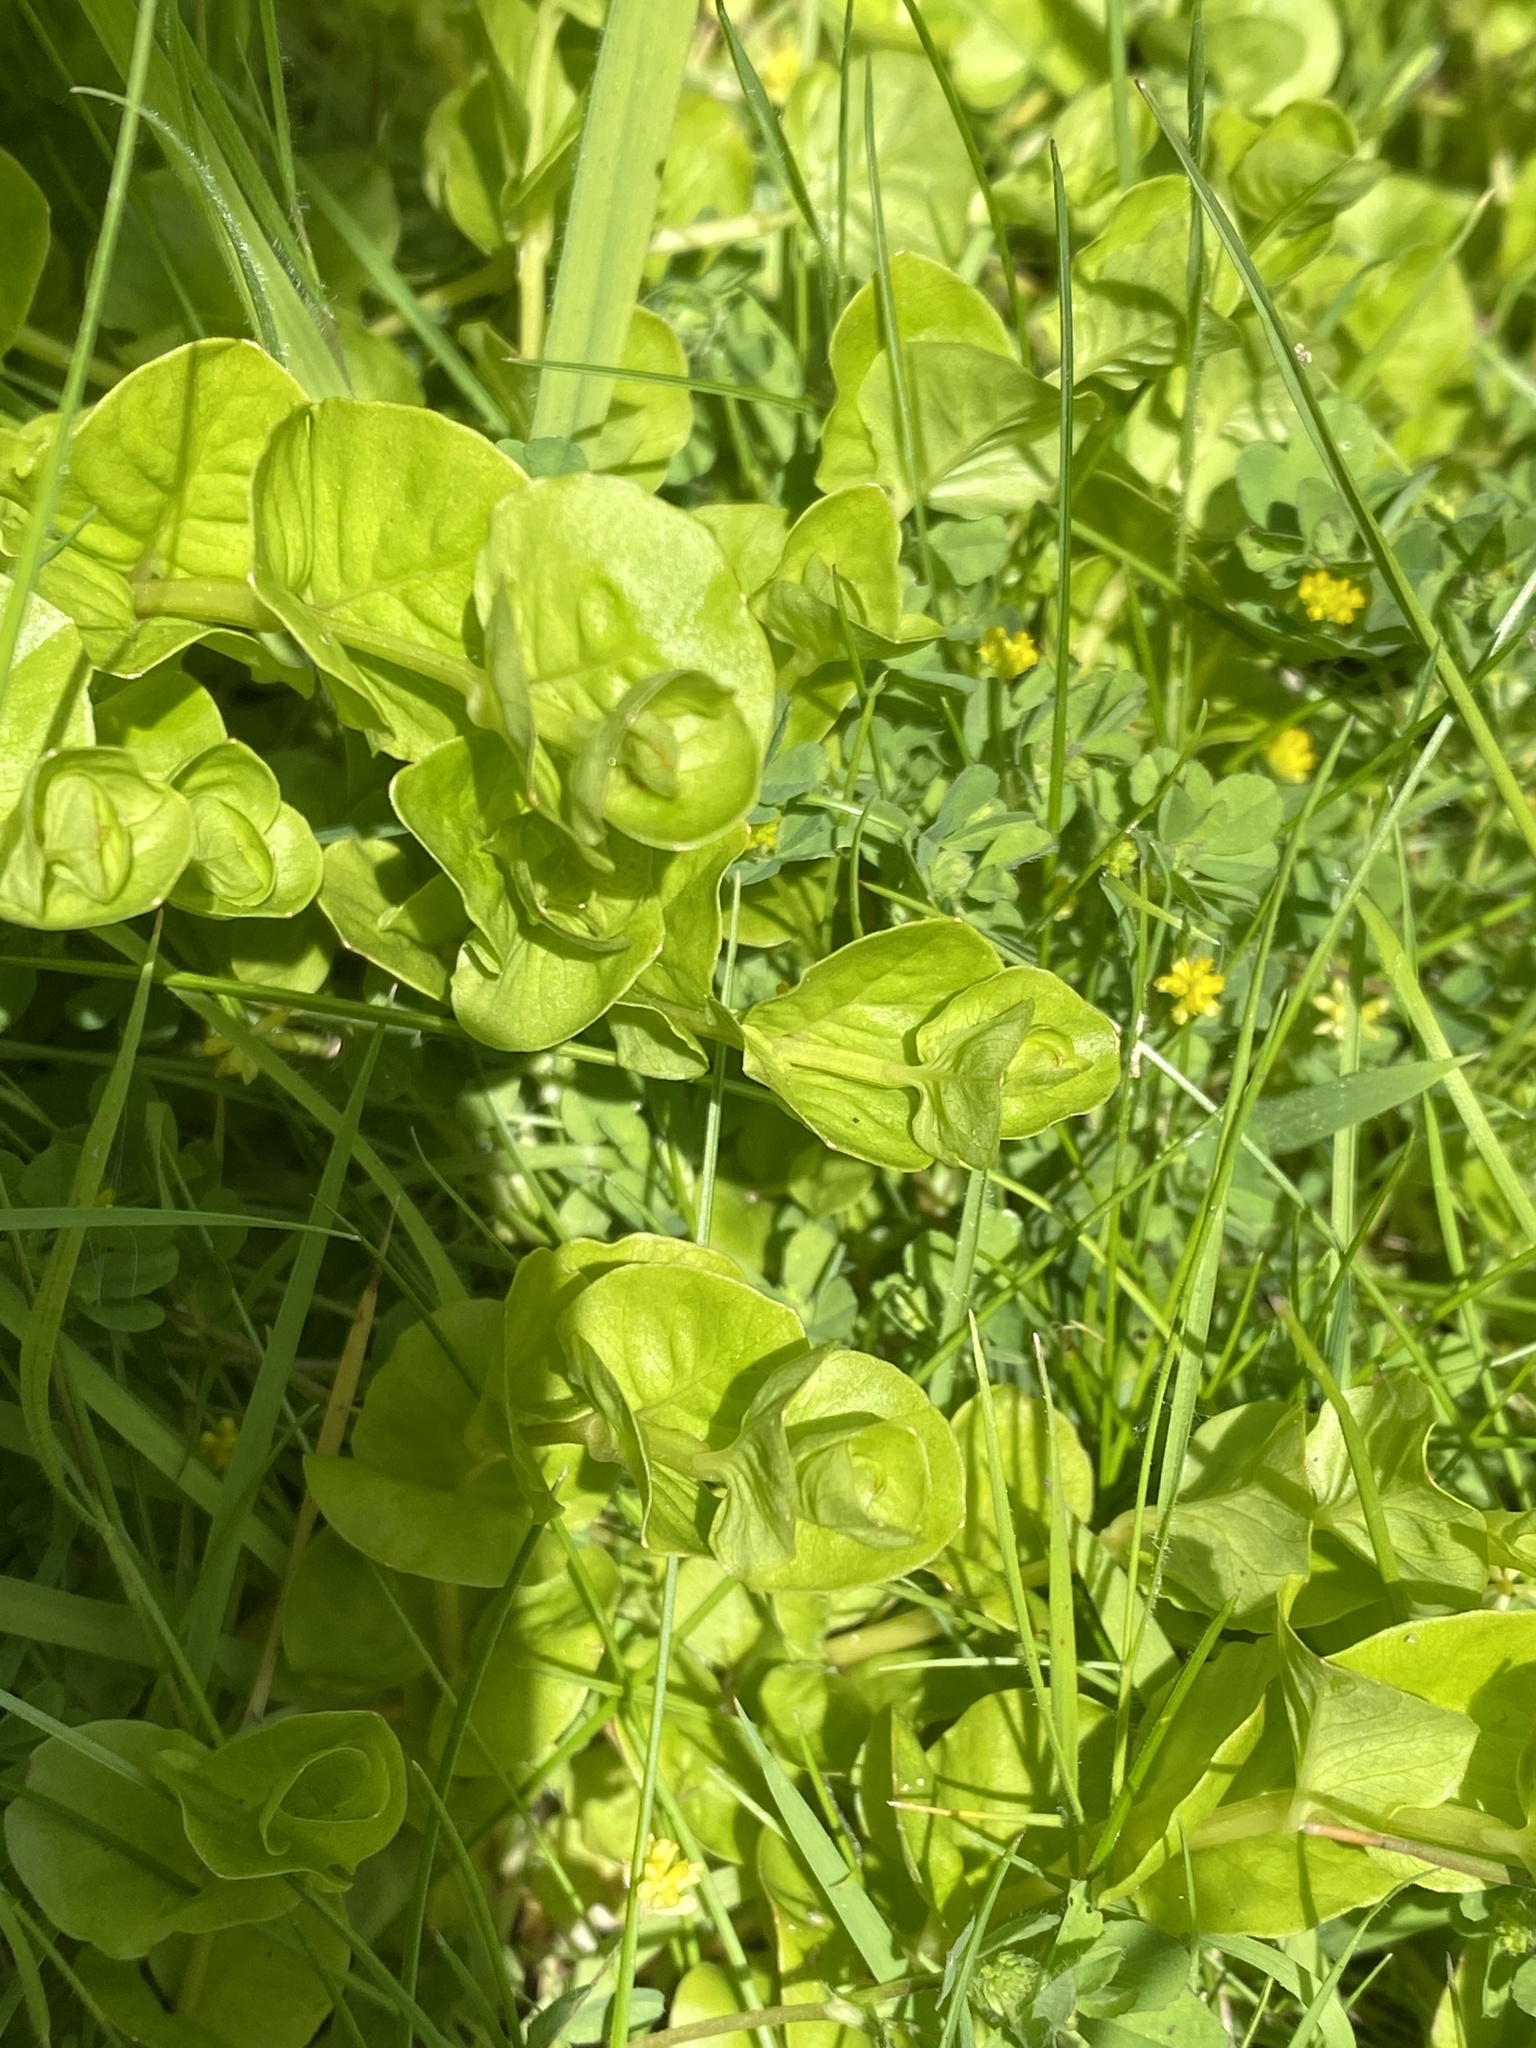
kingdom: Plantae
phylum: Tracheophyta
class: Magnoliopsida
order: Ericales
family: Primulaceae
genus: Lysimachia
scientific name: Lysimachia nummularia
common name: Moneywort
